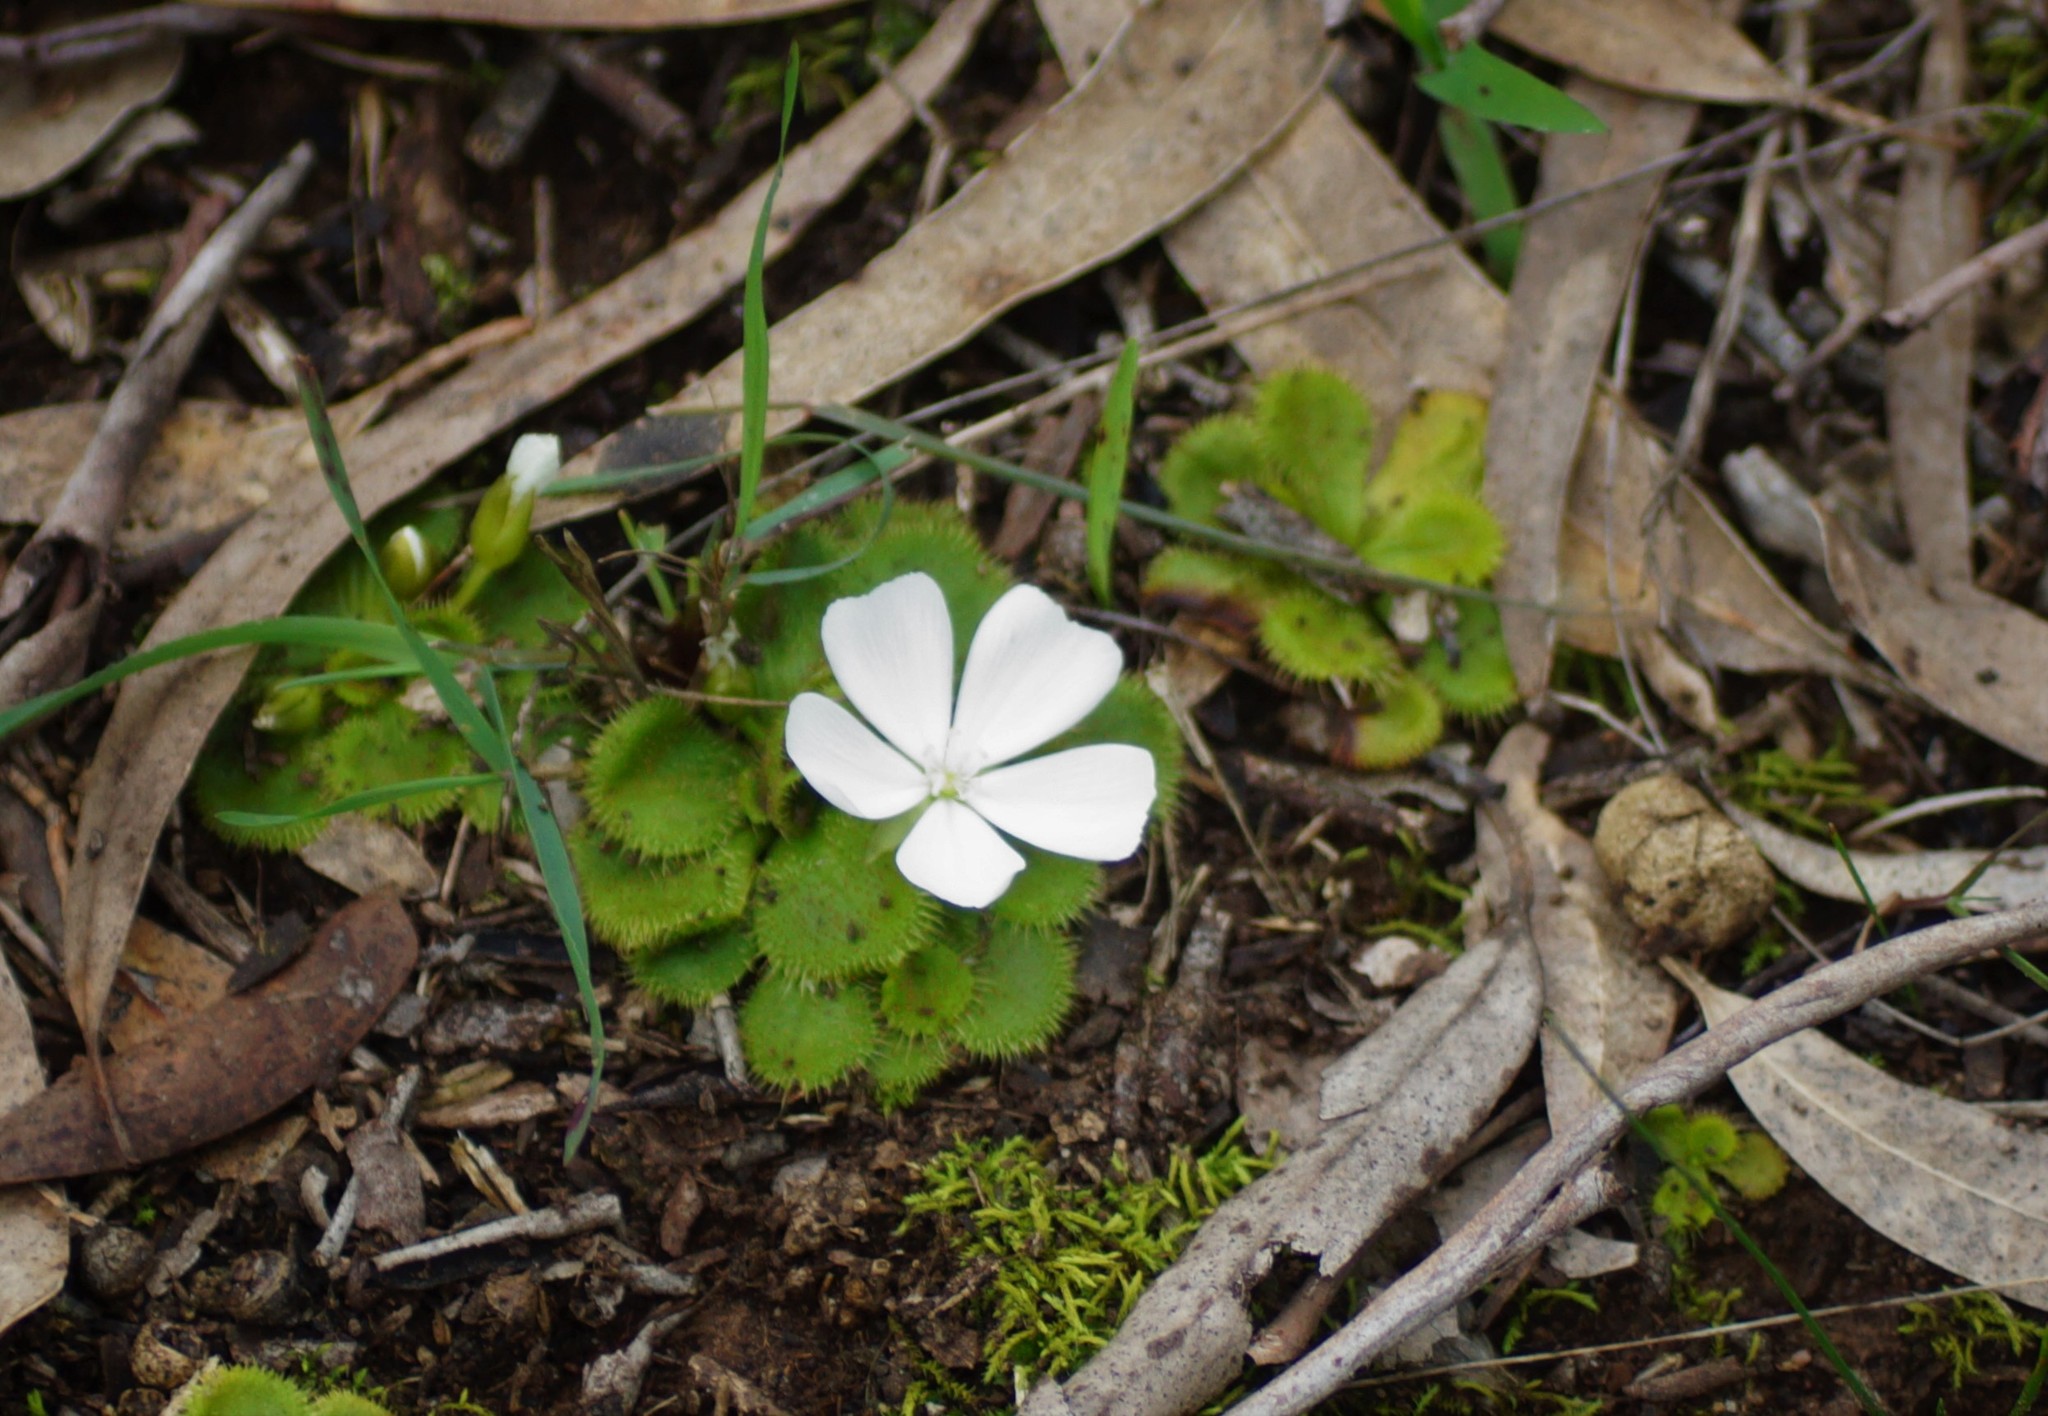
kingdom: Plantae
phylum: Tracheophyta
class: Magnoliopsida
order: Caryophyllales
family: Droseraceae
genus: Drosera
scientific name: Drosera aberrans
